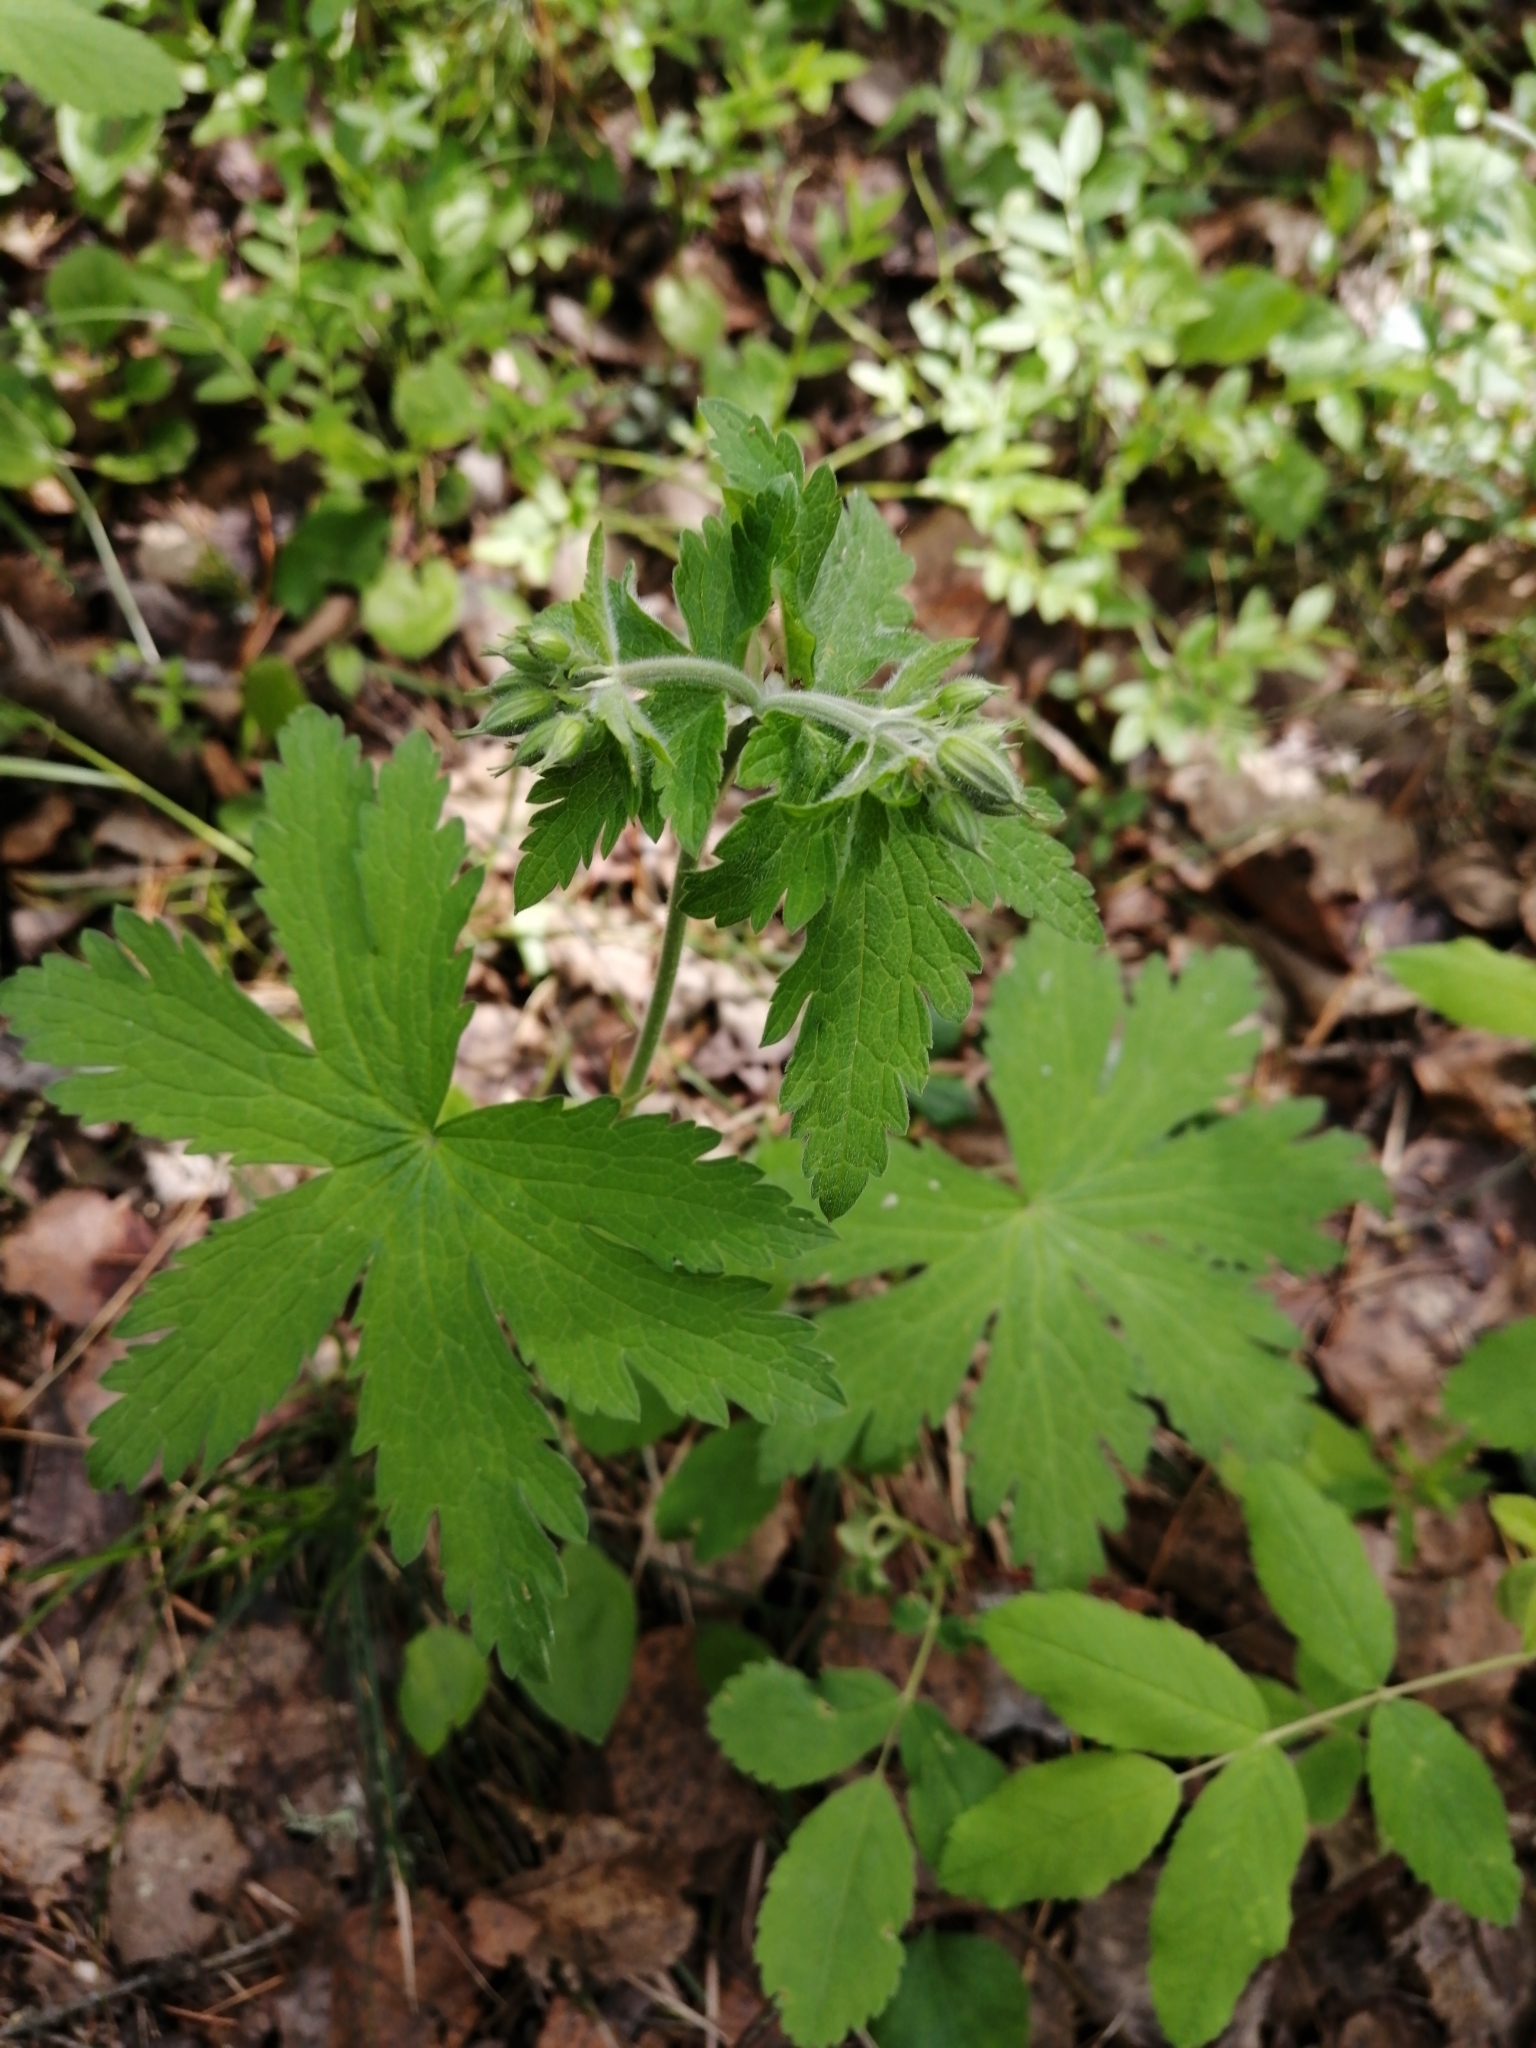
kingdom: Plantae
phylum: Tracheophyta
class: Magnoliopsida
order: Geraniales
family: Geraniaceae
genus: Geranium
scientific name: Geranium sylvaticum
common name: Wood crane's-bill
